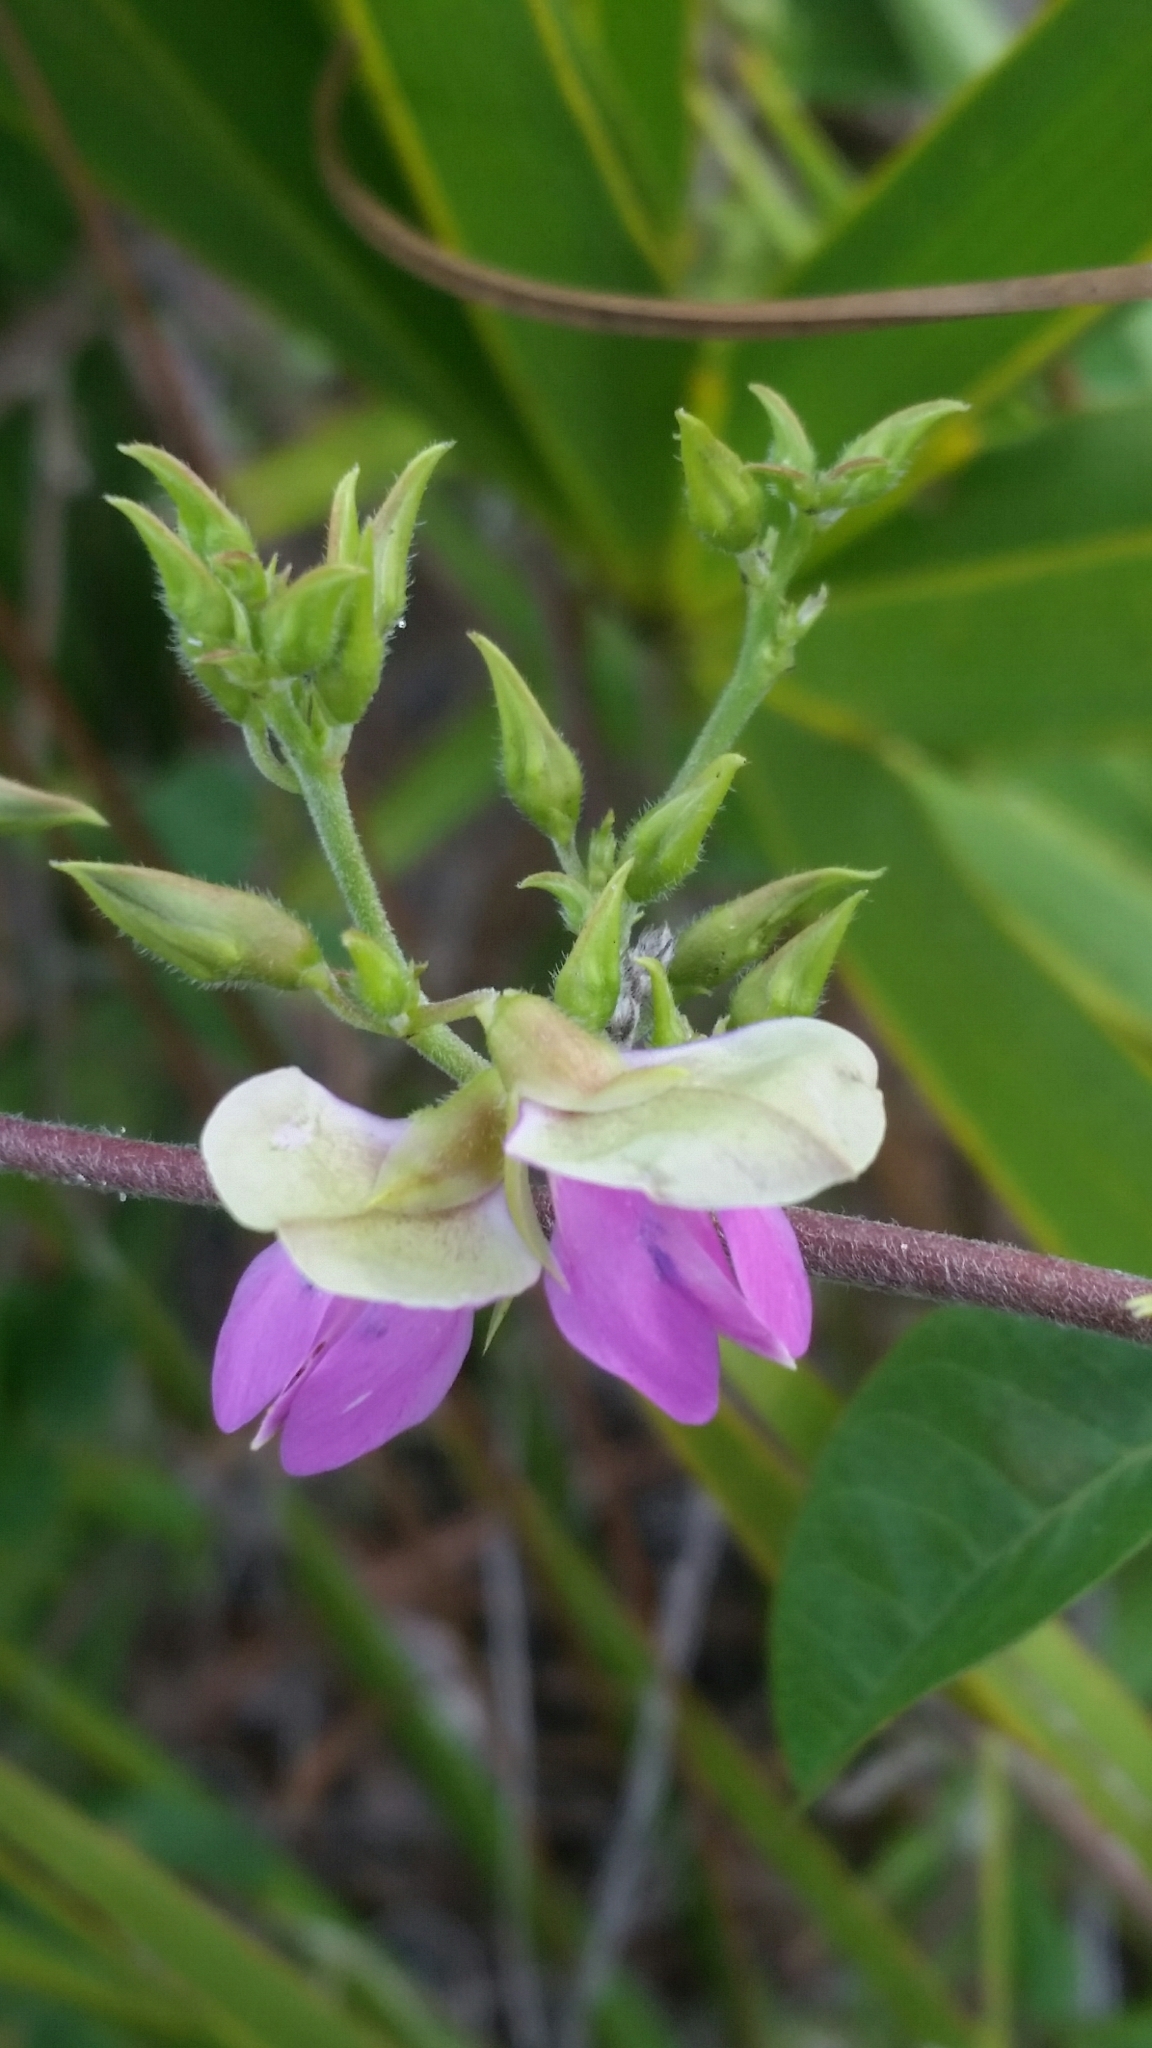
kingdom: Plantae
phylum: Tracheophyta
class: Magnoliopsida
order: Fabales
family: Fabaceae
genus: Galactia
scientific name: Galactia purshii
